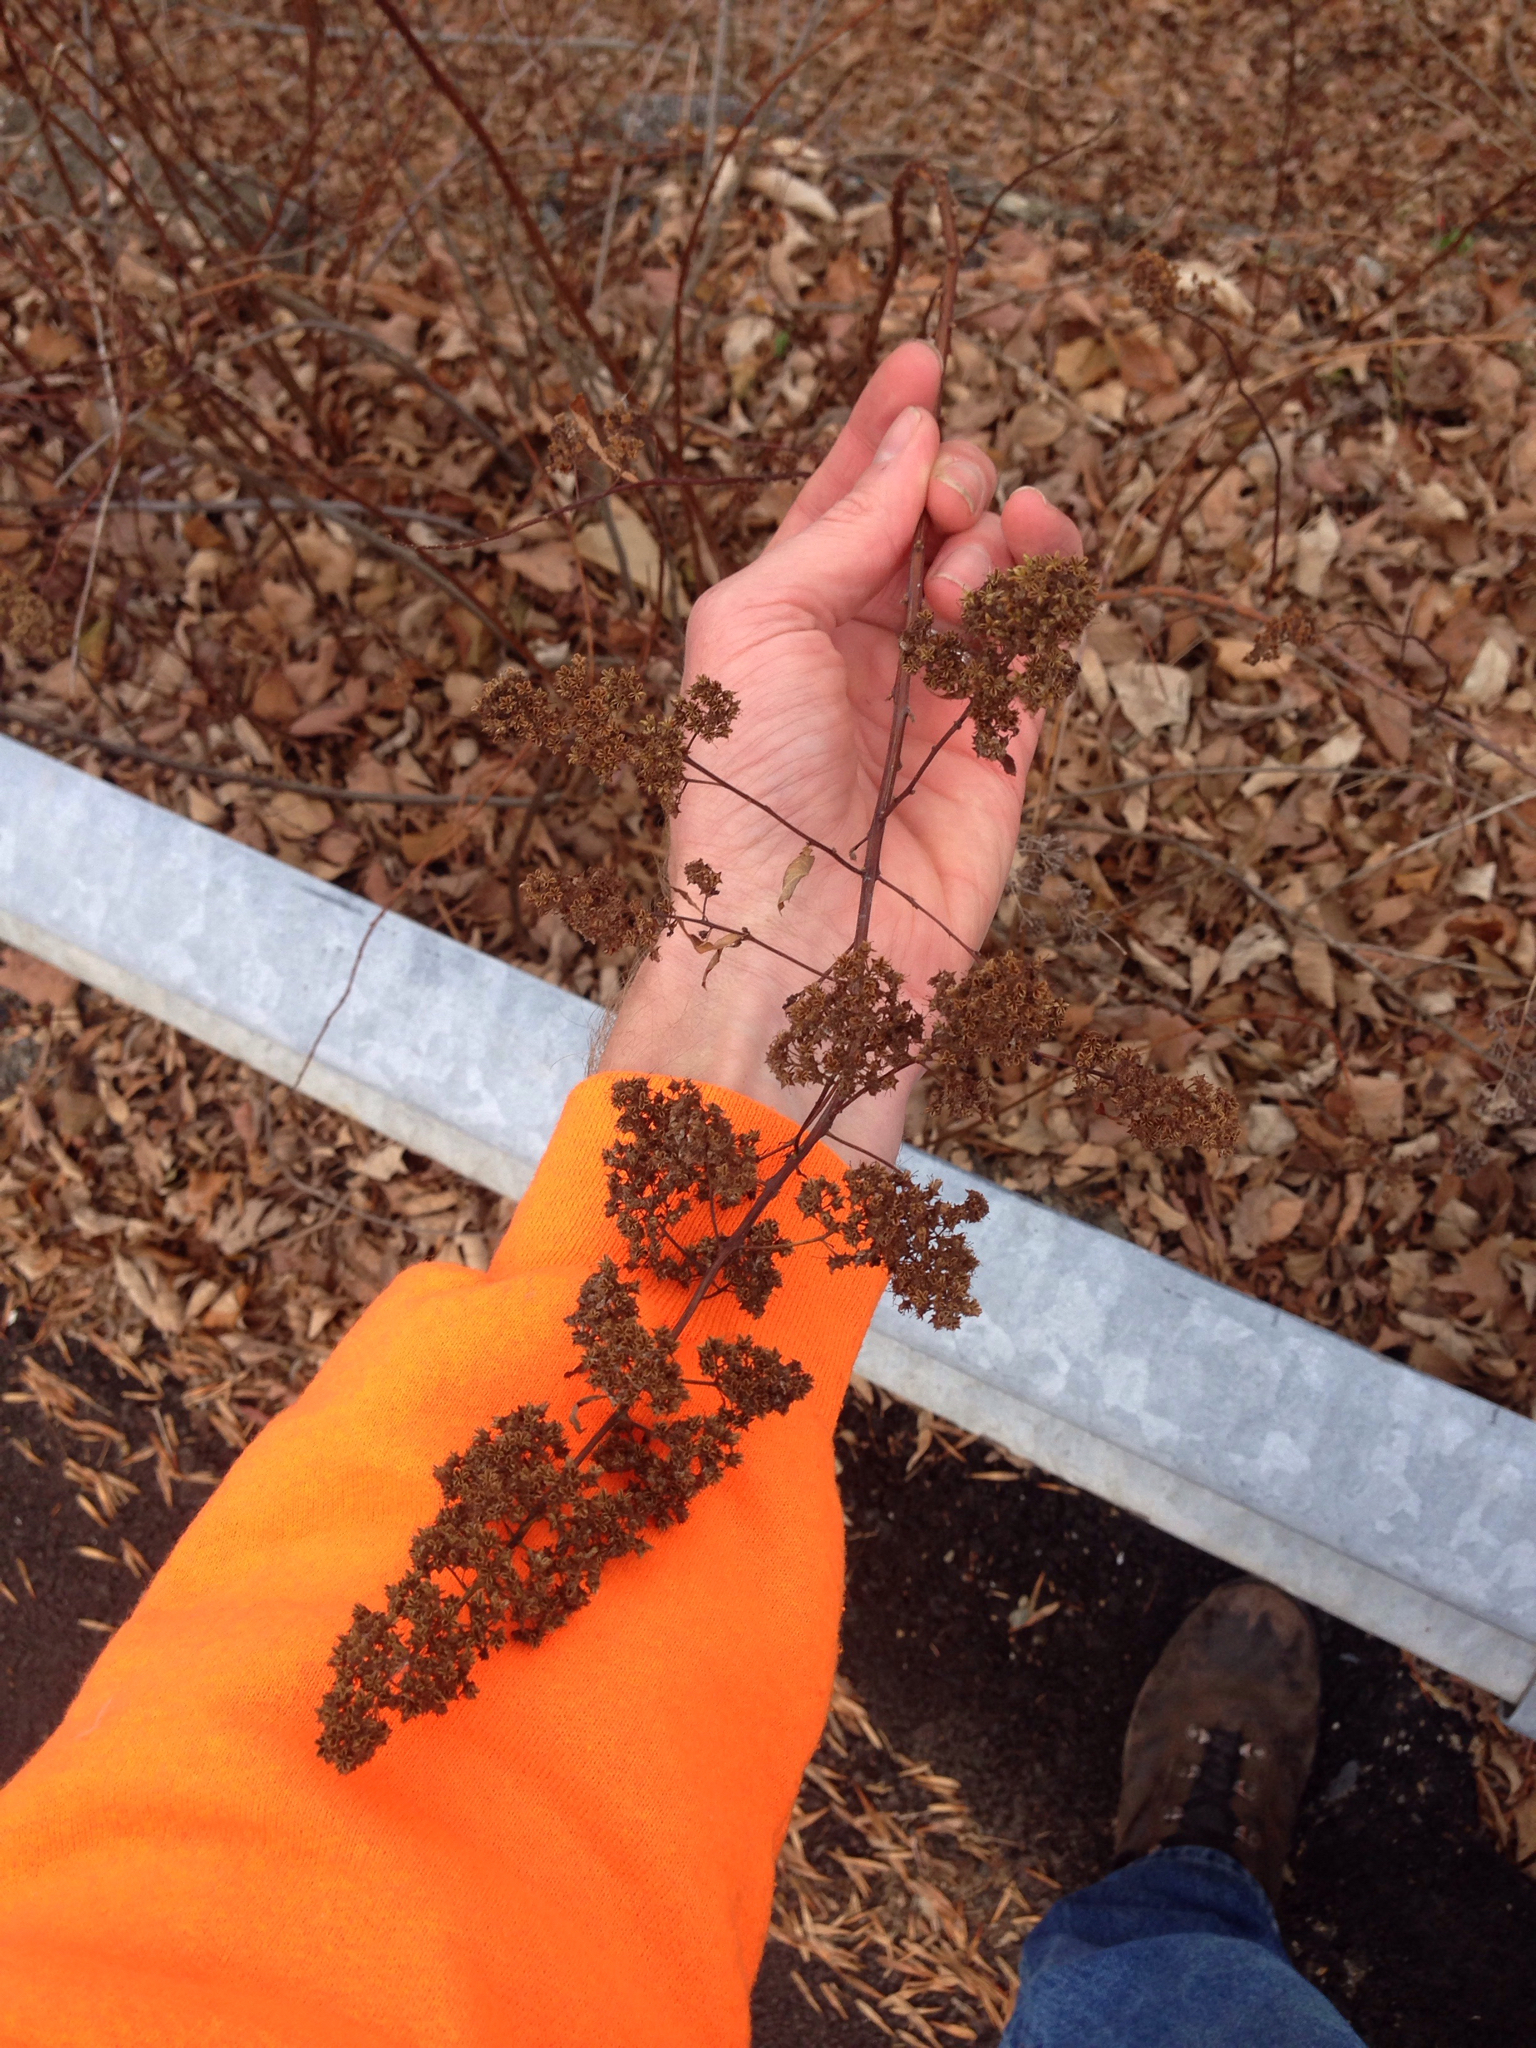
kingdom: Plantae
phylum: Tracheophyta
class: Magnoliopsida
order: Rosales
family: Rosaceae
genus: Spiraea
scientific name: Spiraea alba
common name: Pale bridewort
